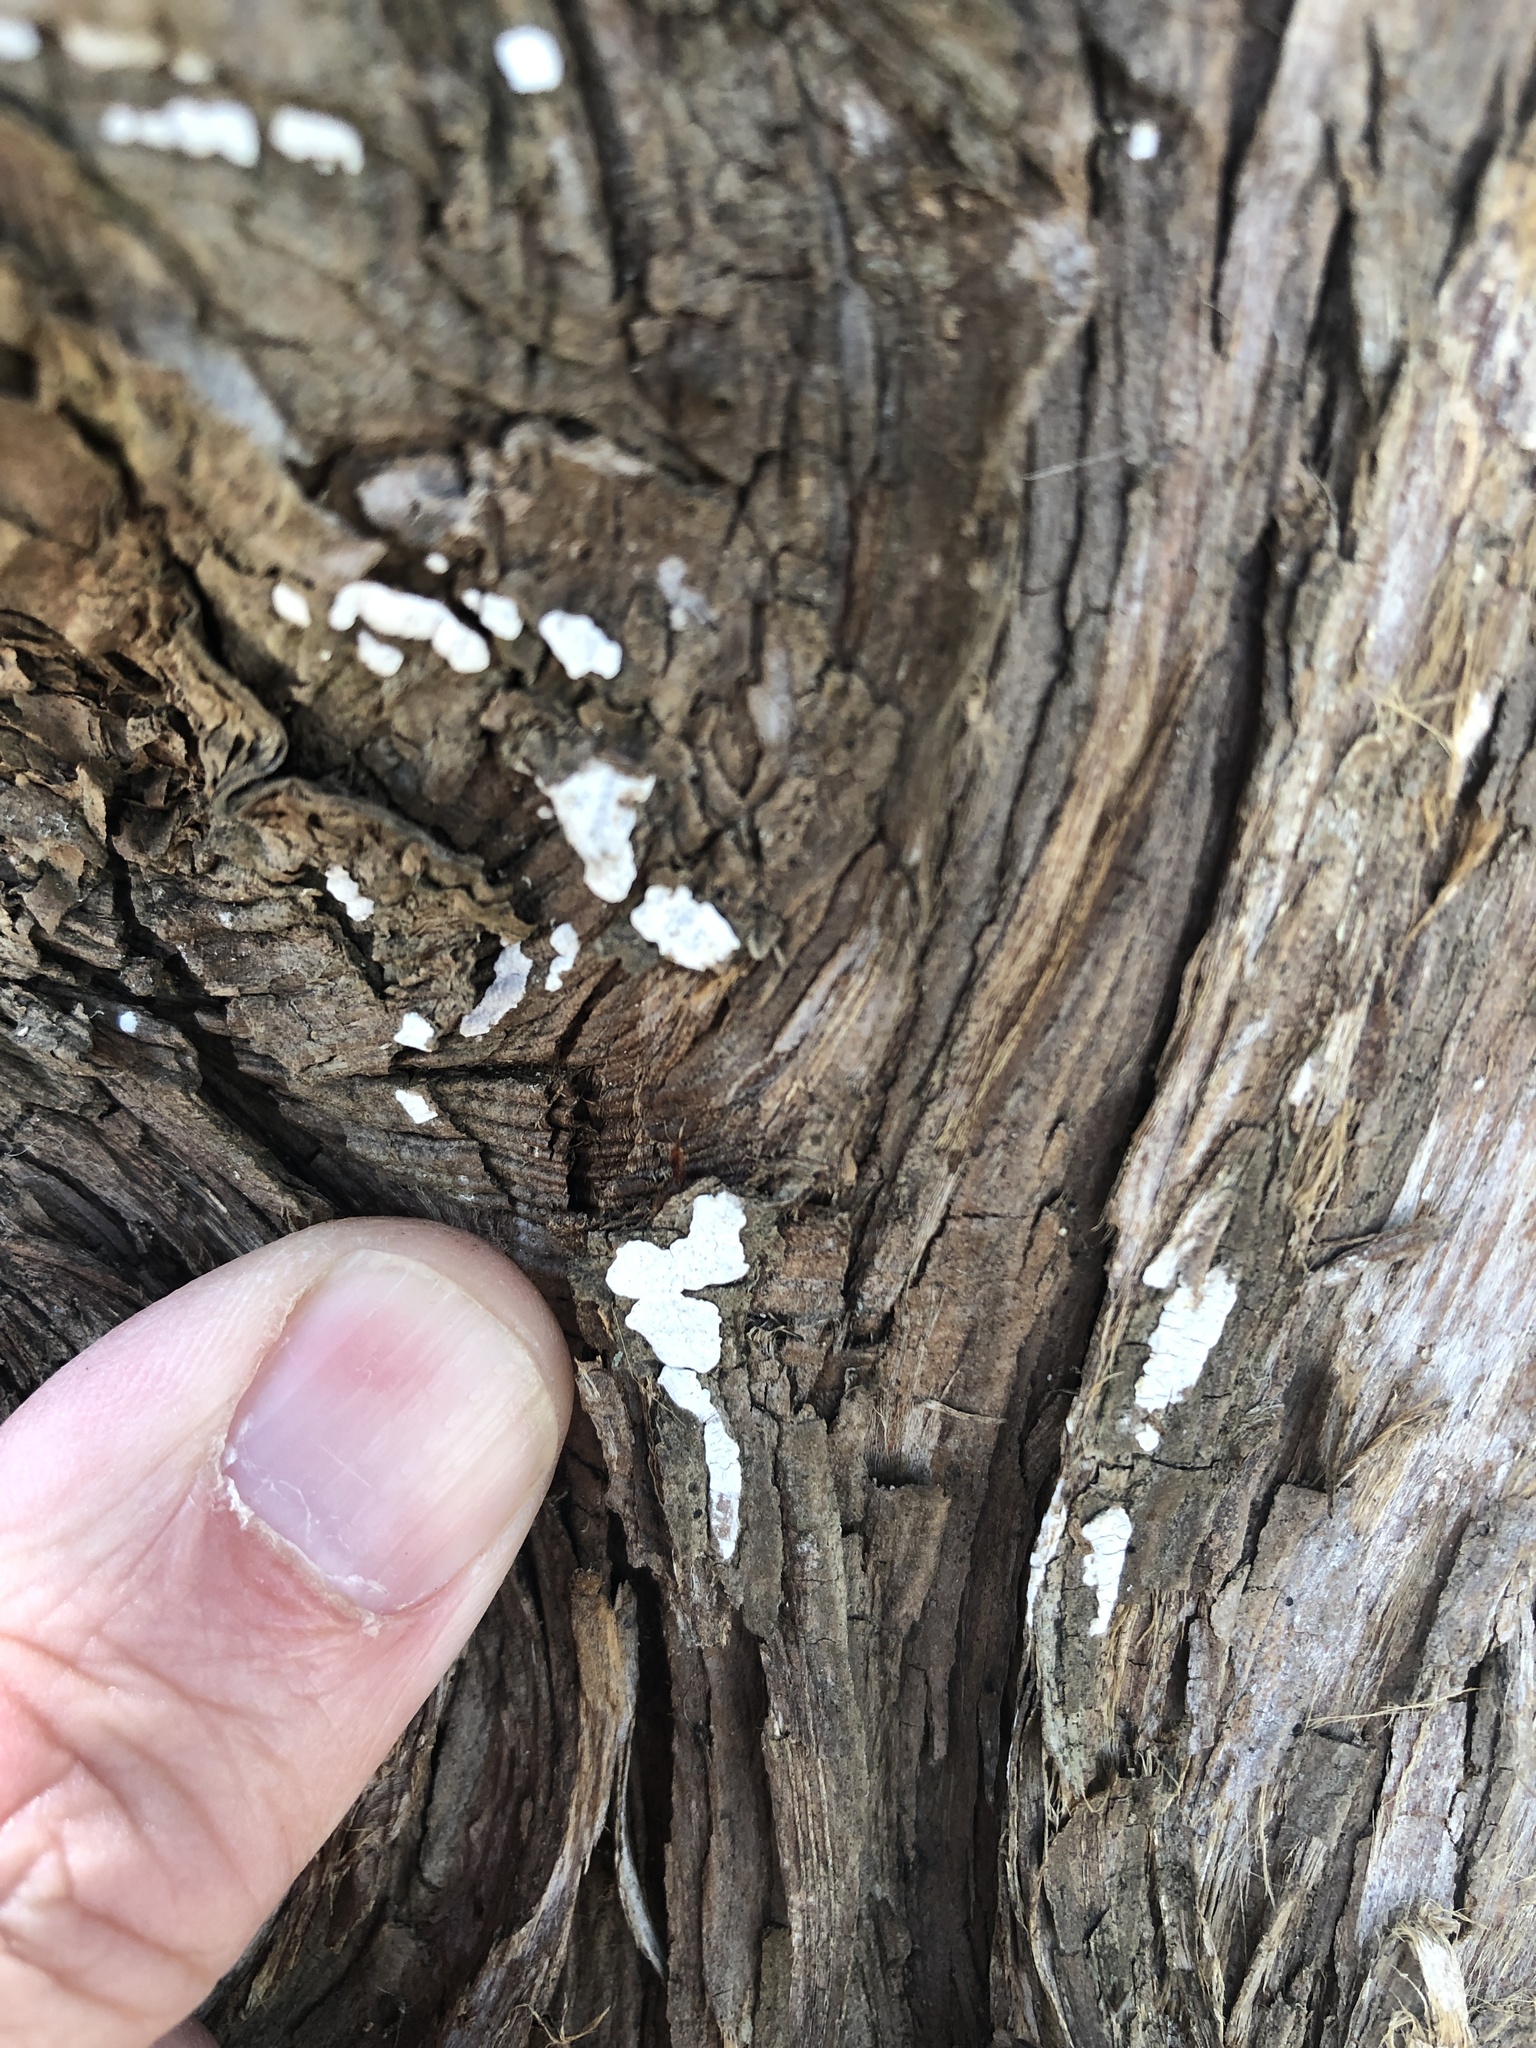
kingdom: Fungi
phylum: Basidiomycota
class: Agaricomycetes
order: Agaricales
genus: Dendrothele
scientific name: Dendrothele nivosa
